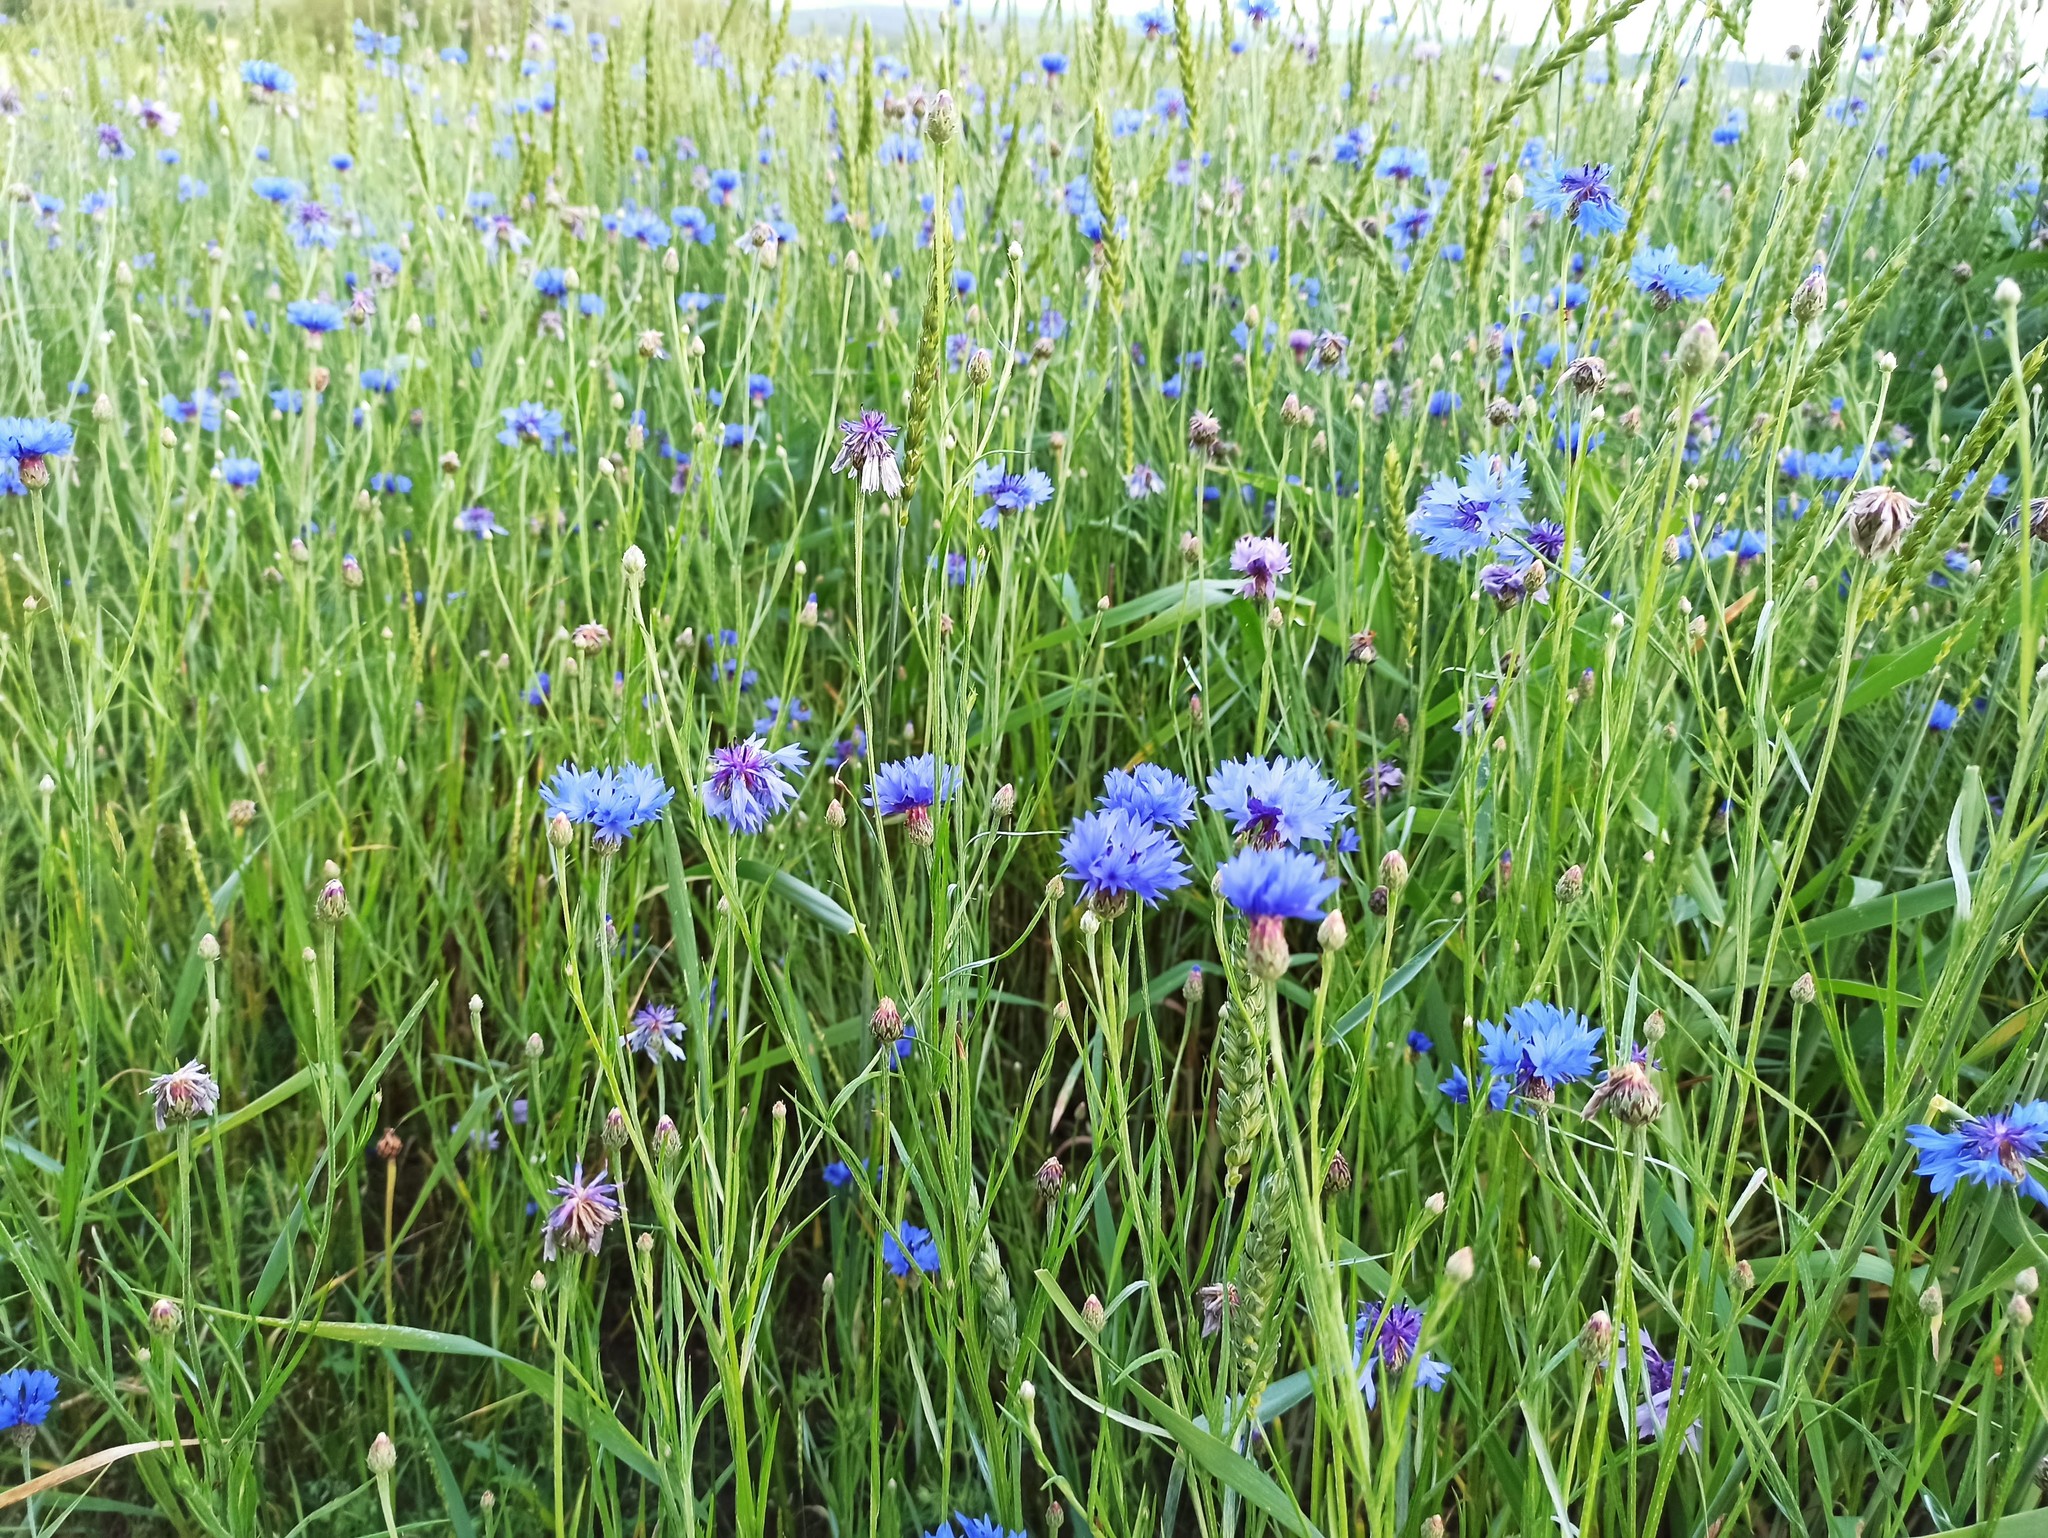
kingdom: Plantae
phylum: Tracheophyta
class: Magnoliopsida
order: Asterales
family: Asteraceae
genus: Centaurea
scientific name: Centaurea cyanus
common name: Cornflower
